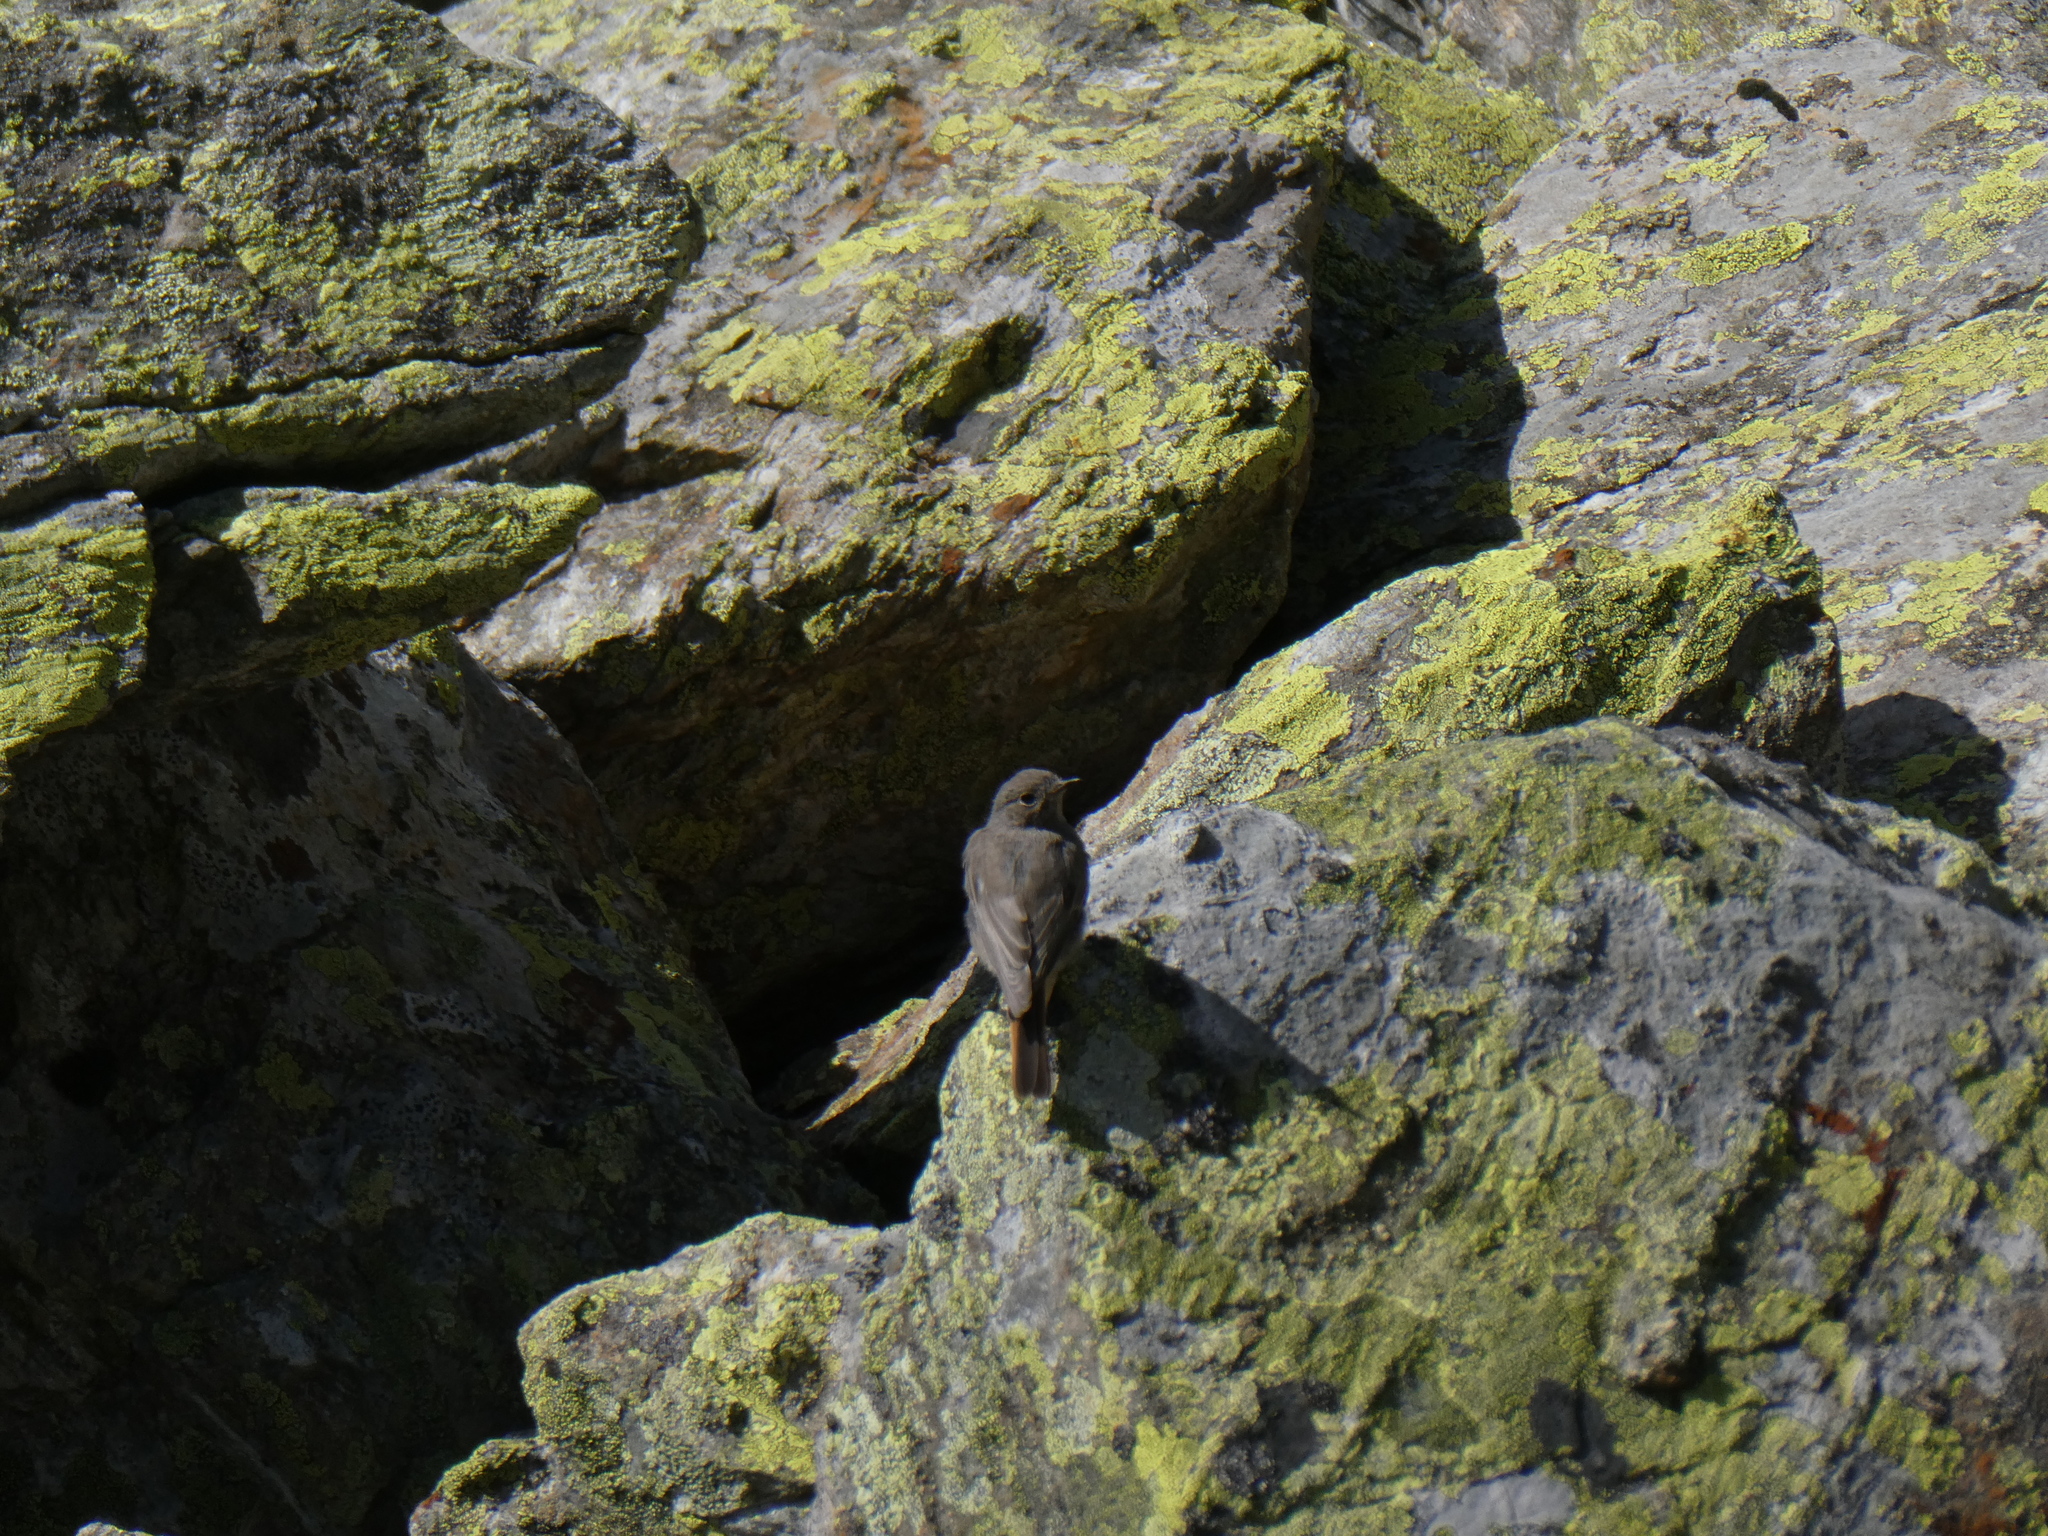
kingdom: Animalia
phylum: Chordata
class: Aves
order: Passeriformes
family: Muscicapidae
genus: Phoenicurus
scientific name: Phoenicurus ochruros
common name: Black redstart
